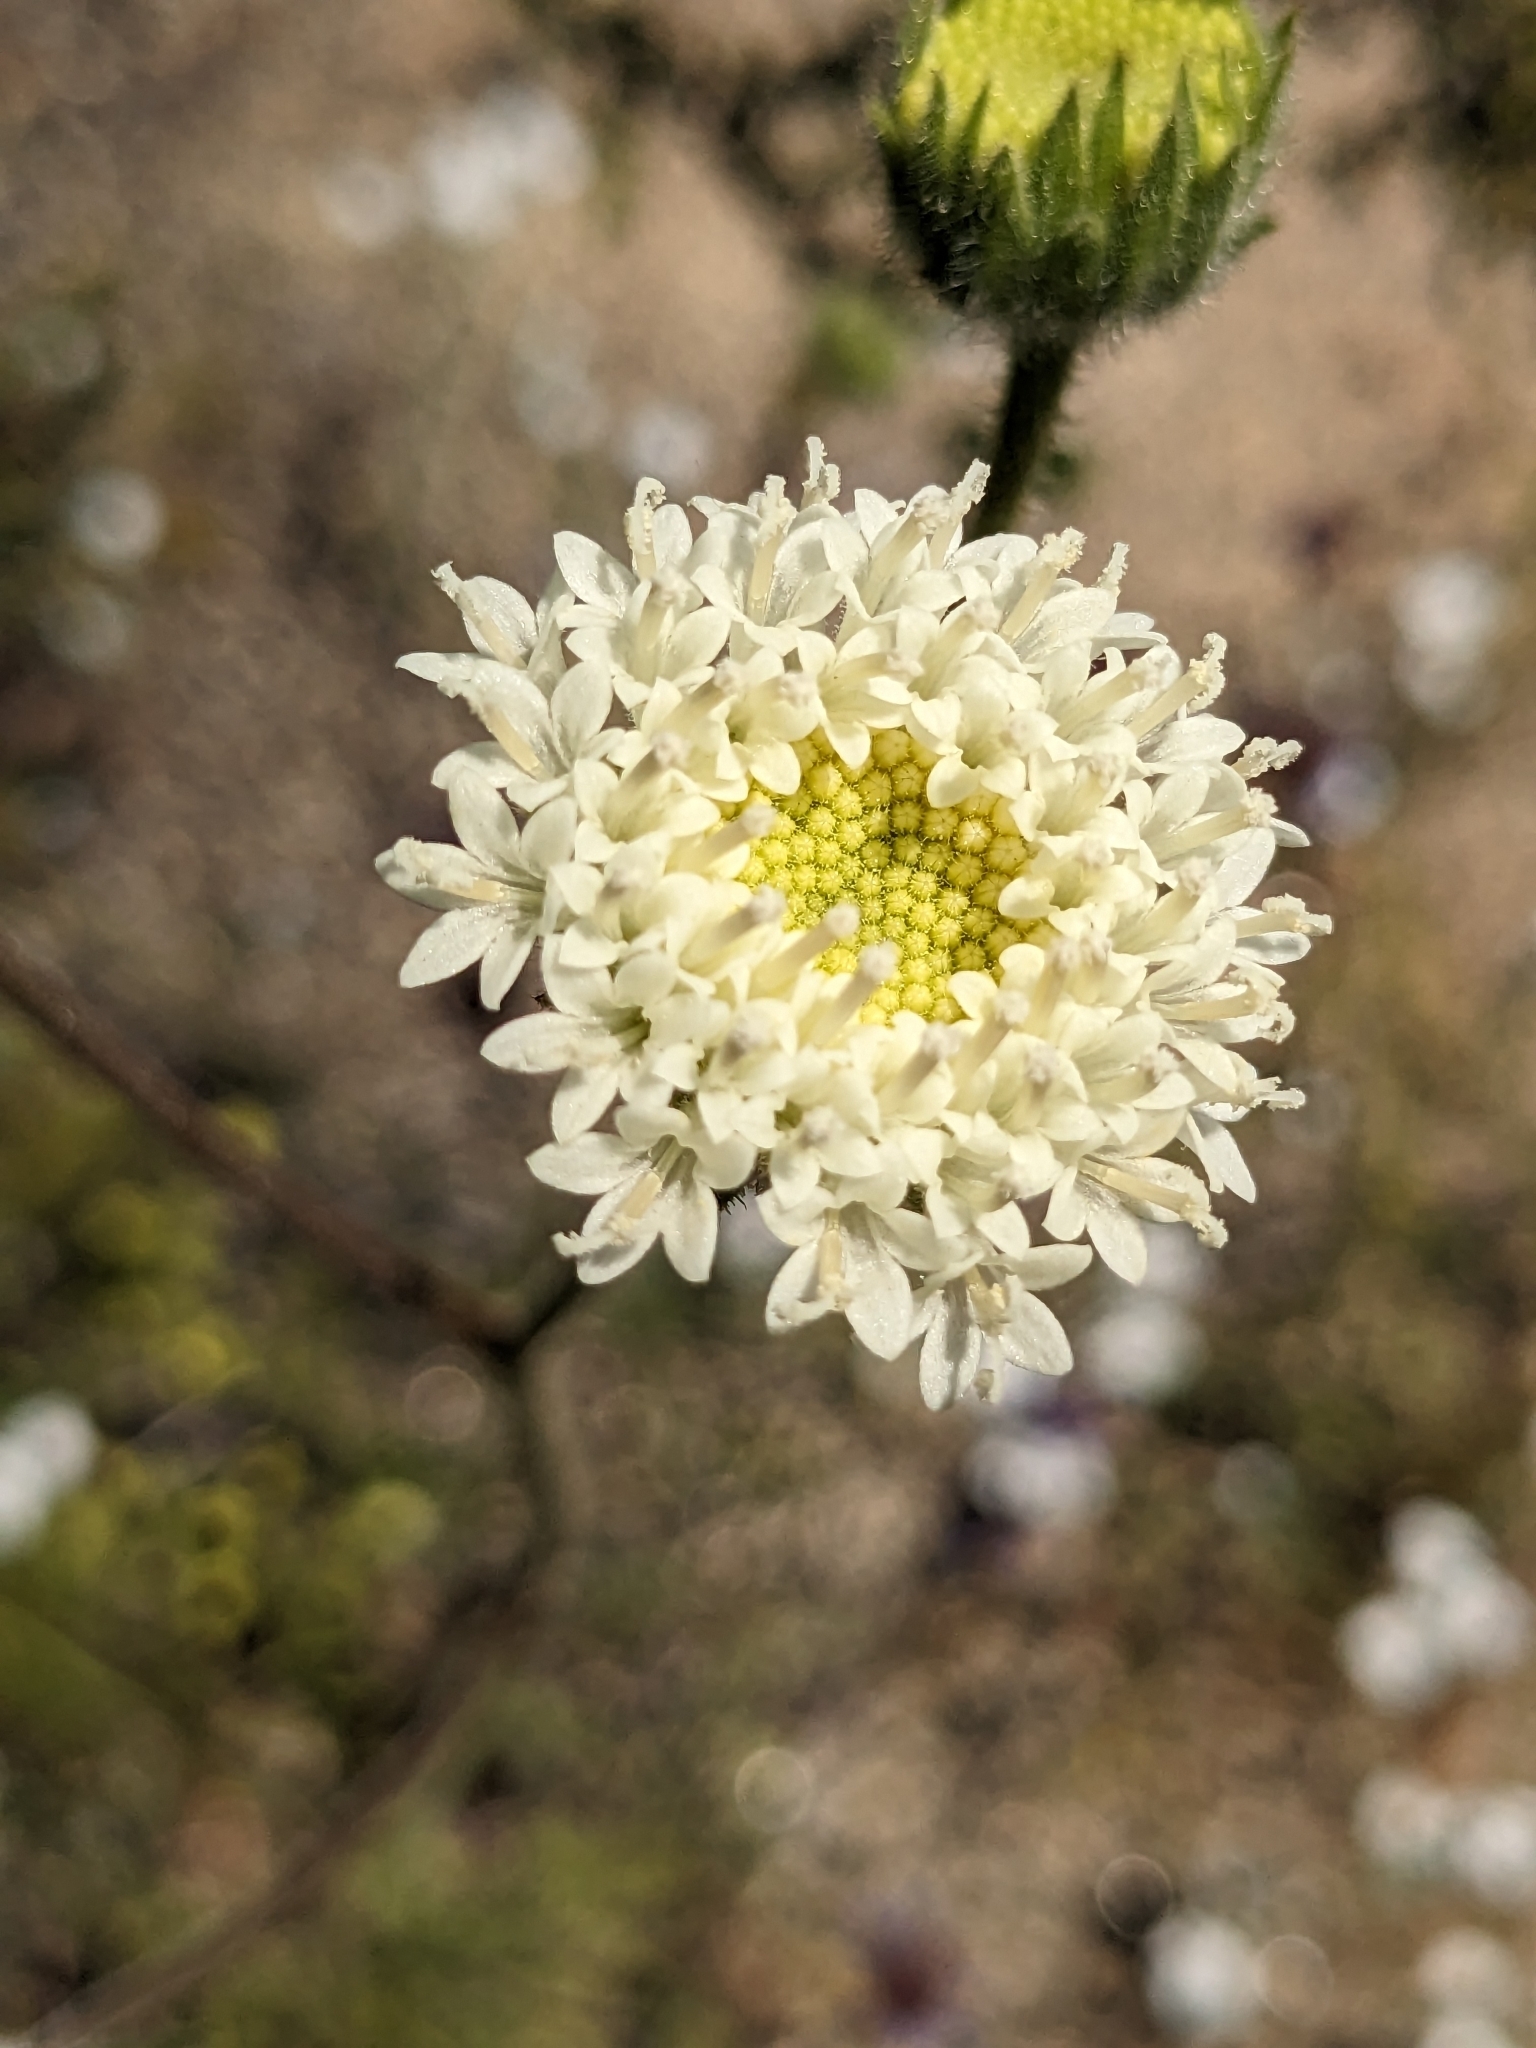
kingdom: Plantae
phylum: Tracheophyta
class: Magnoliopsida
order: Asterales
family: Asteraceae
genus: Chaenactis
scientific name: Chaenactis artemisiifolia
